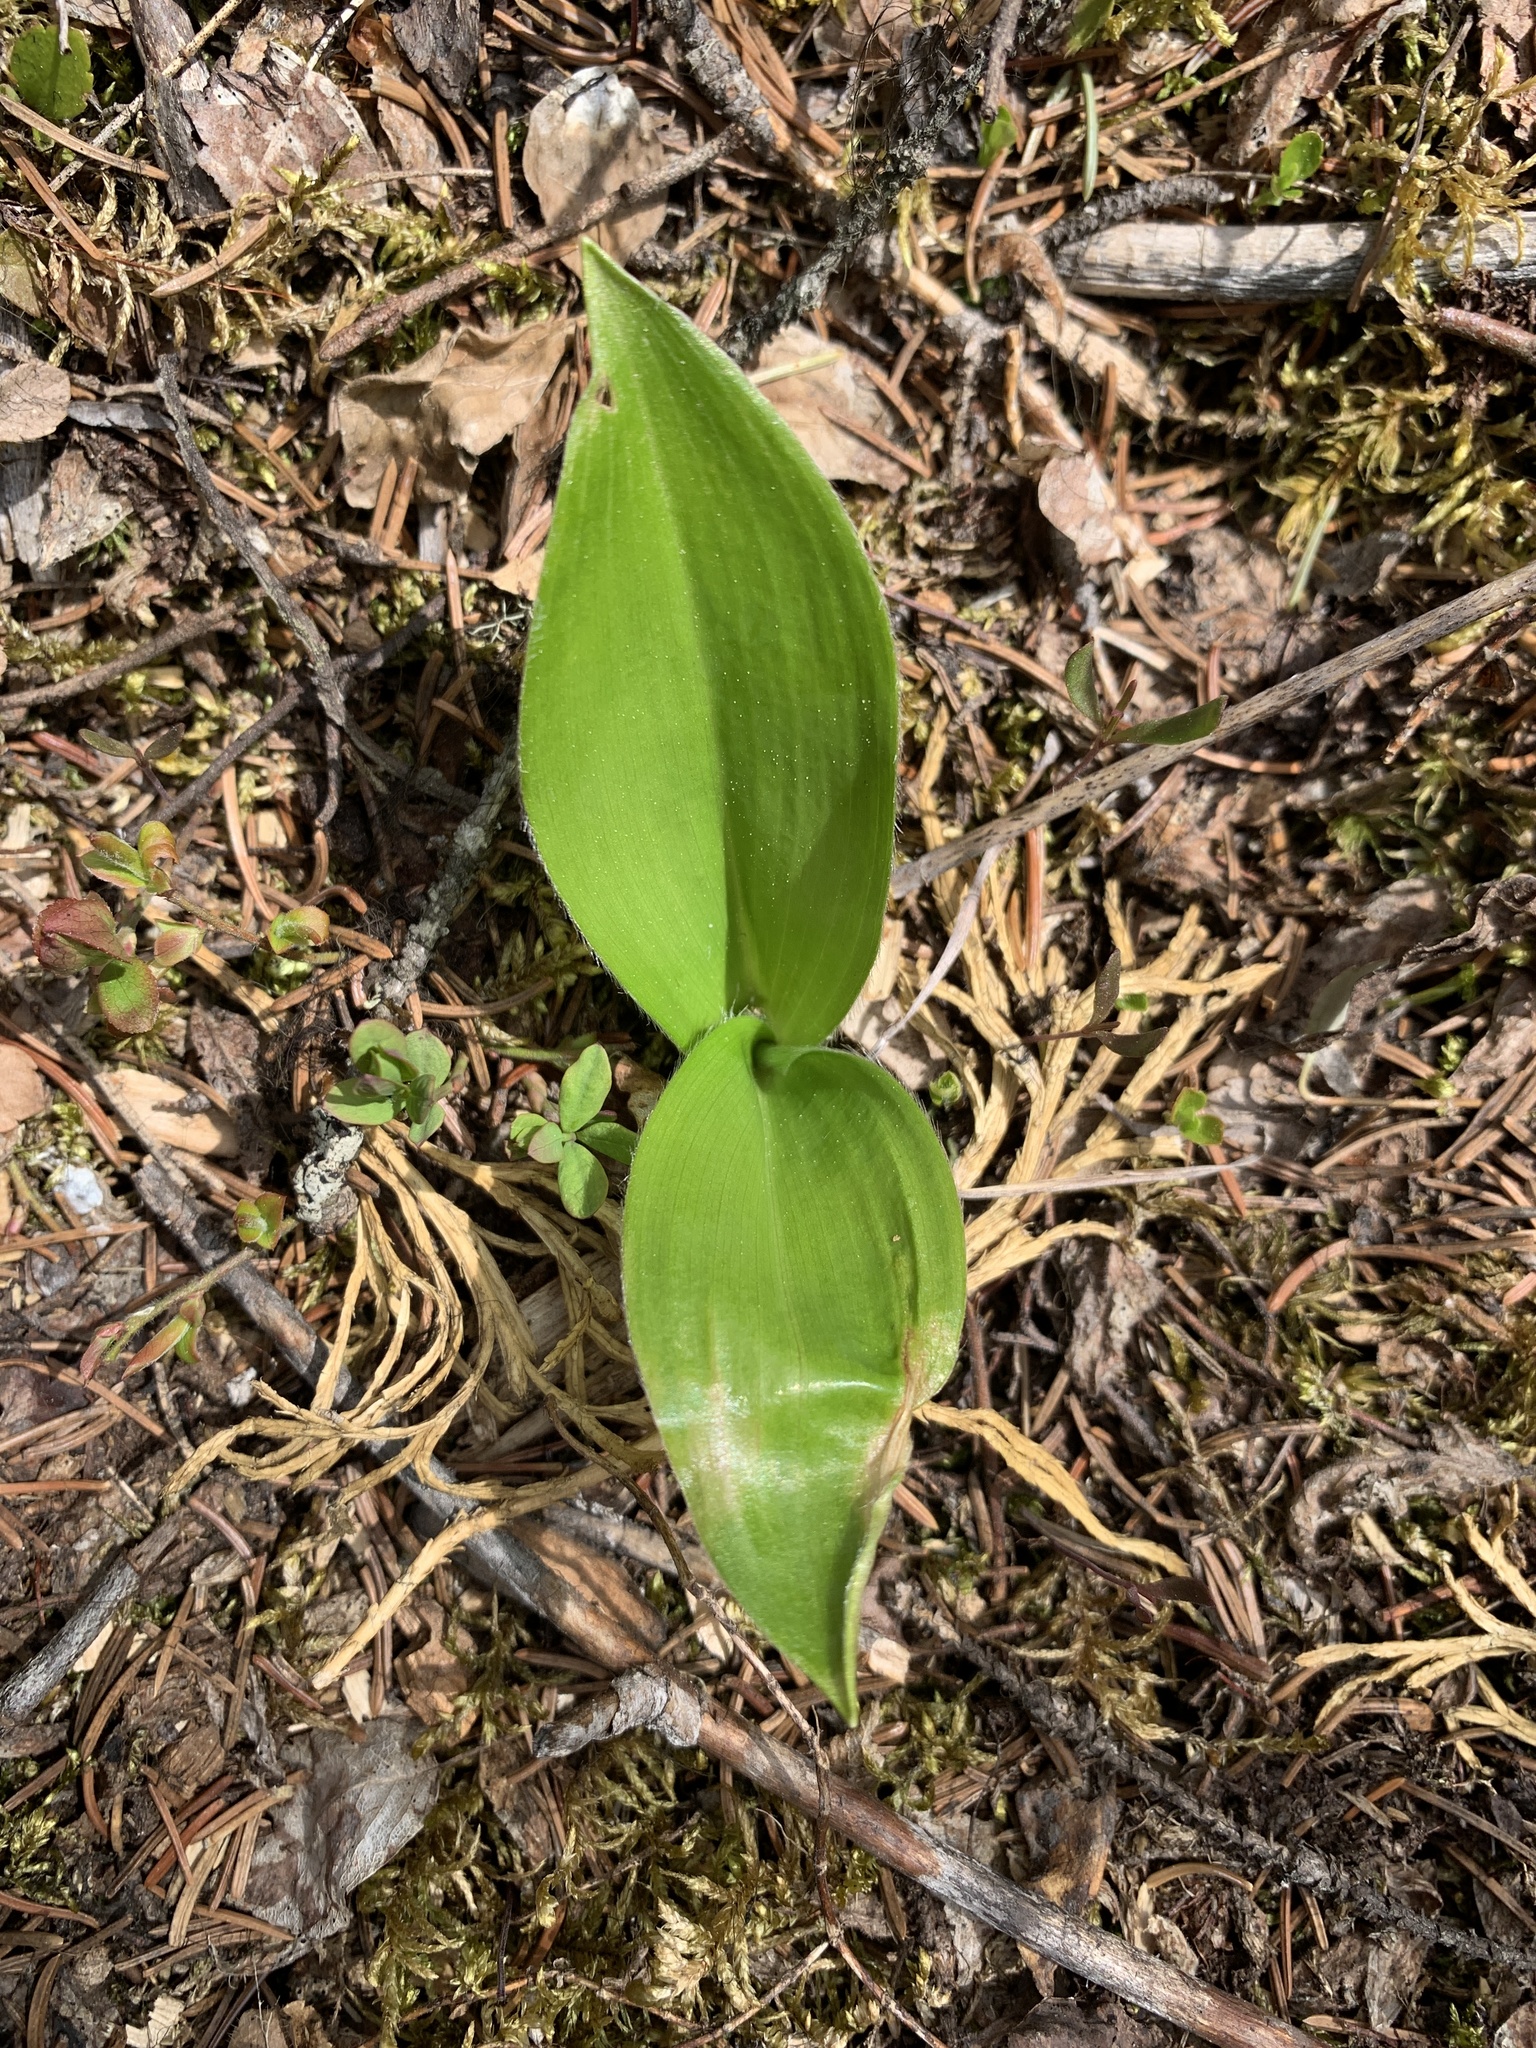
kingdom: Plantae
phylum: Tracheophyta
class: Liliopsida
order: Liliales
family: Liliaceae
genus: Clintonia
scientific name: Clintonia uniflora
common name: Queen's cup
